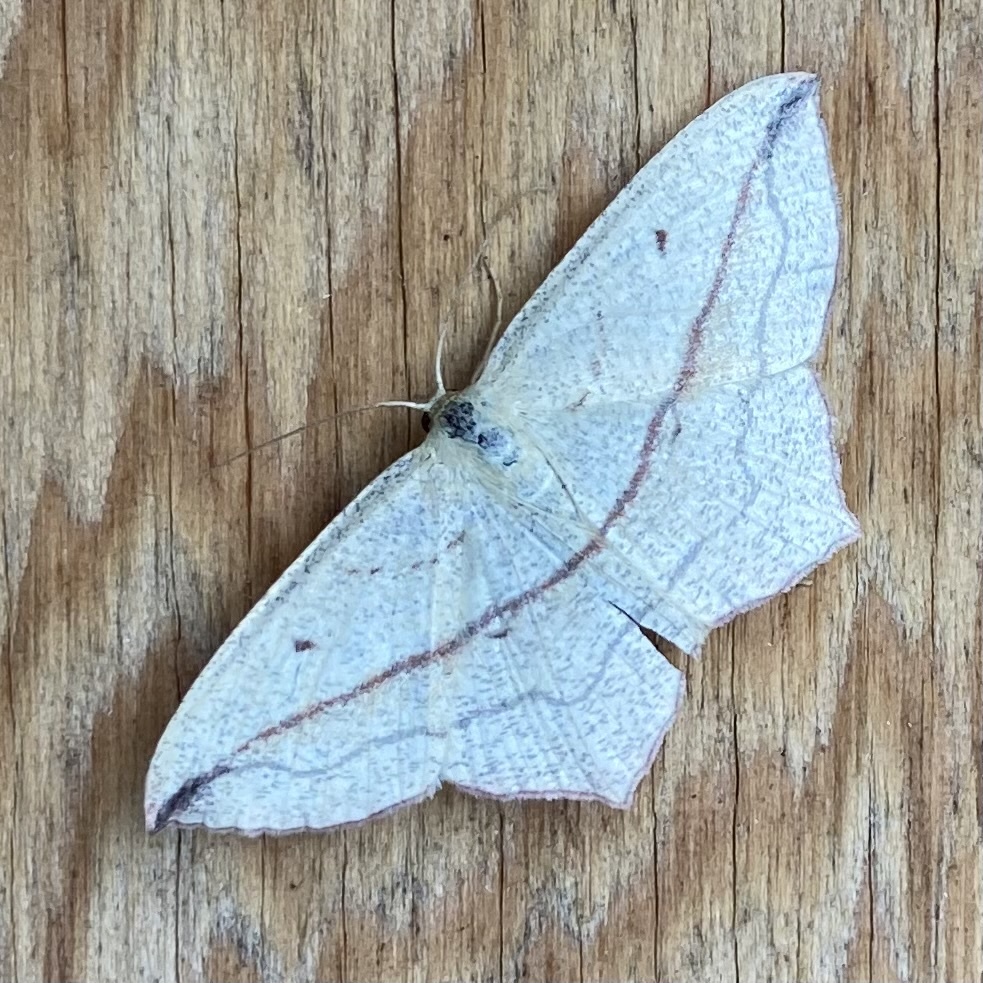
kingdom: Animalia
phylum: Arthropoda
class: Insecta
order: Lepidoptera
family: Geometridae
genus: Timandra
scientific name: Timandra comae
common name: Blood-vein
